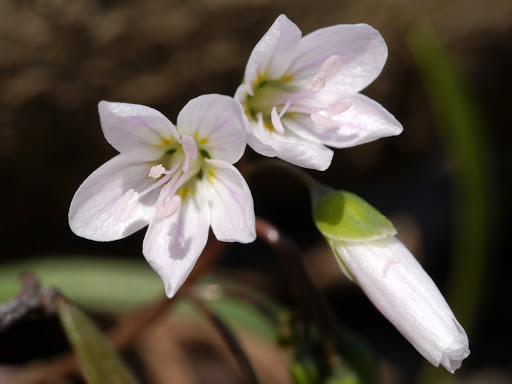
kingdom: Plantae
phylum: Tracheophyta
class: Magnoliopsida
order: Caryophyllales
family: Montiaceae
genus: Claytonia
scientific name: Claytonia virginica
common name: Virginia springbeauty
